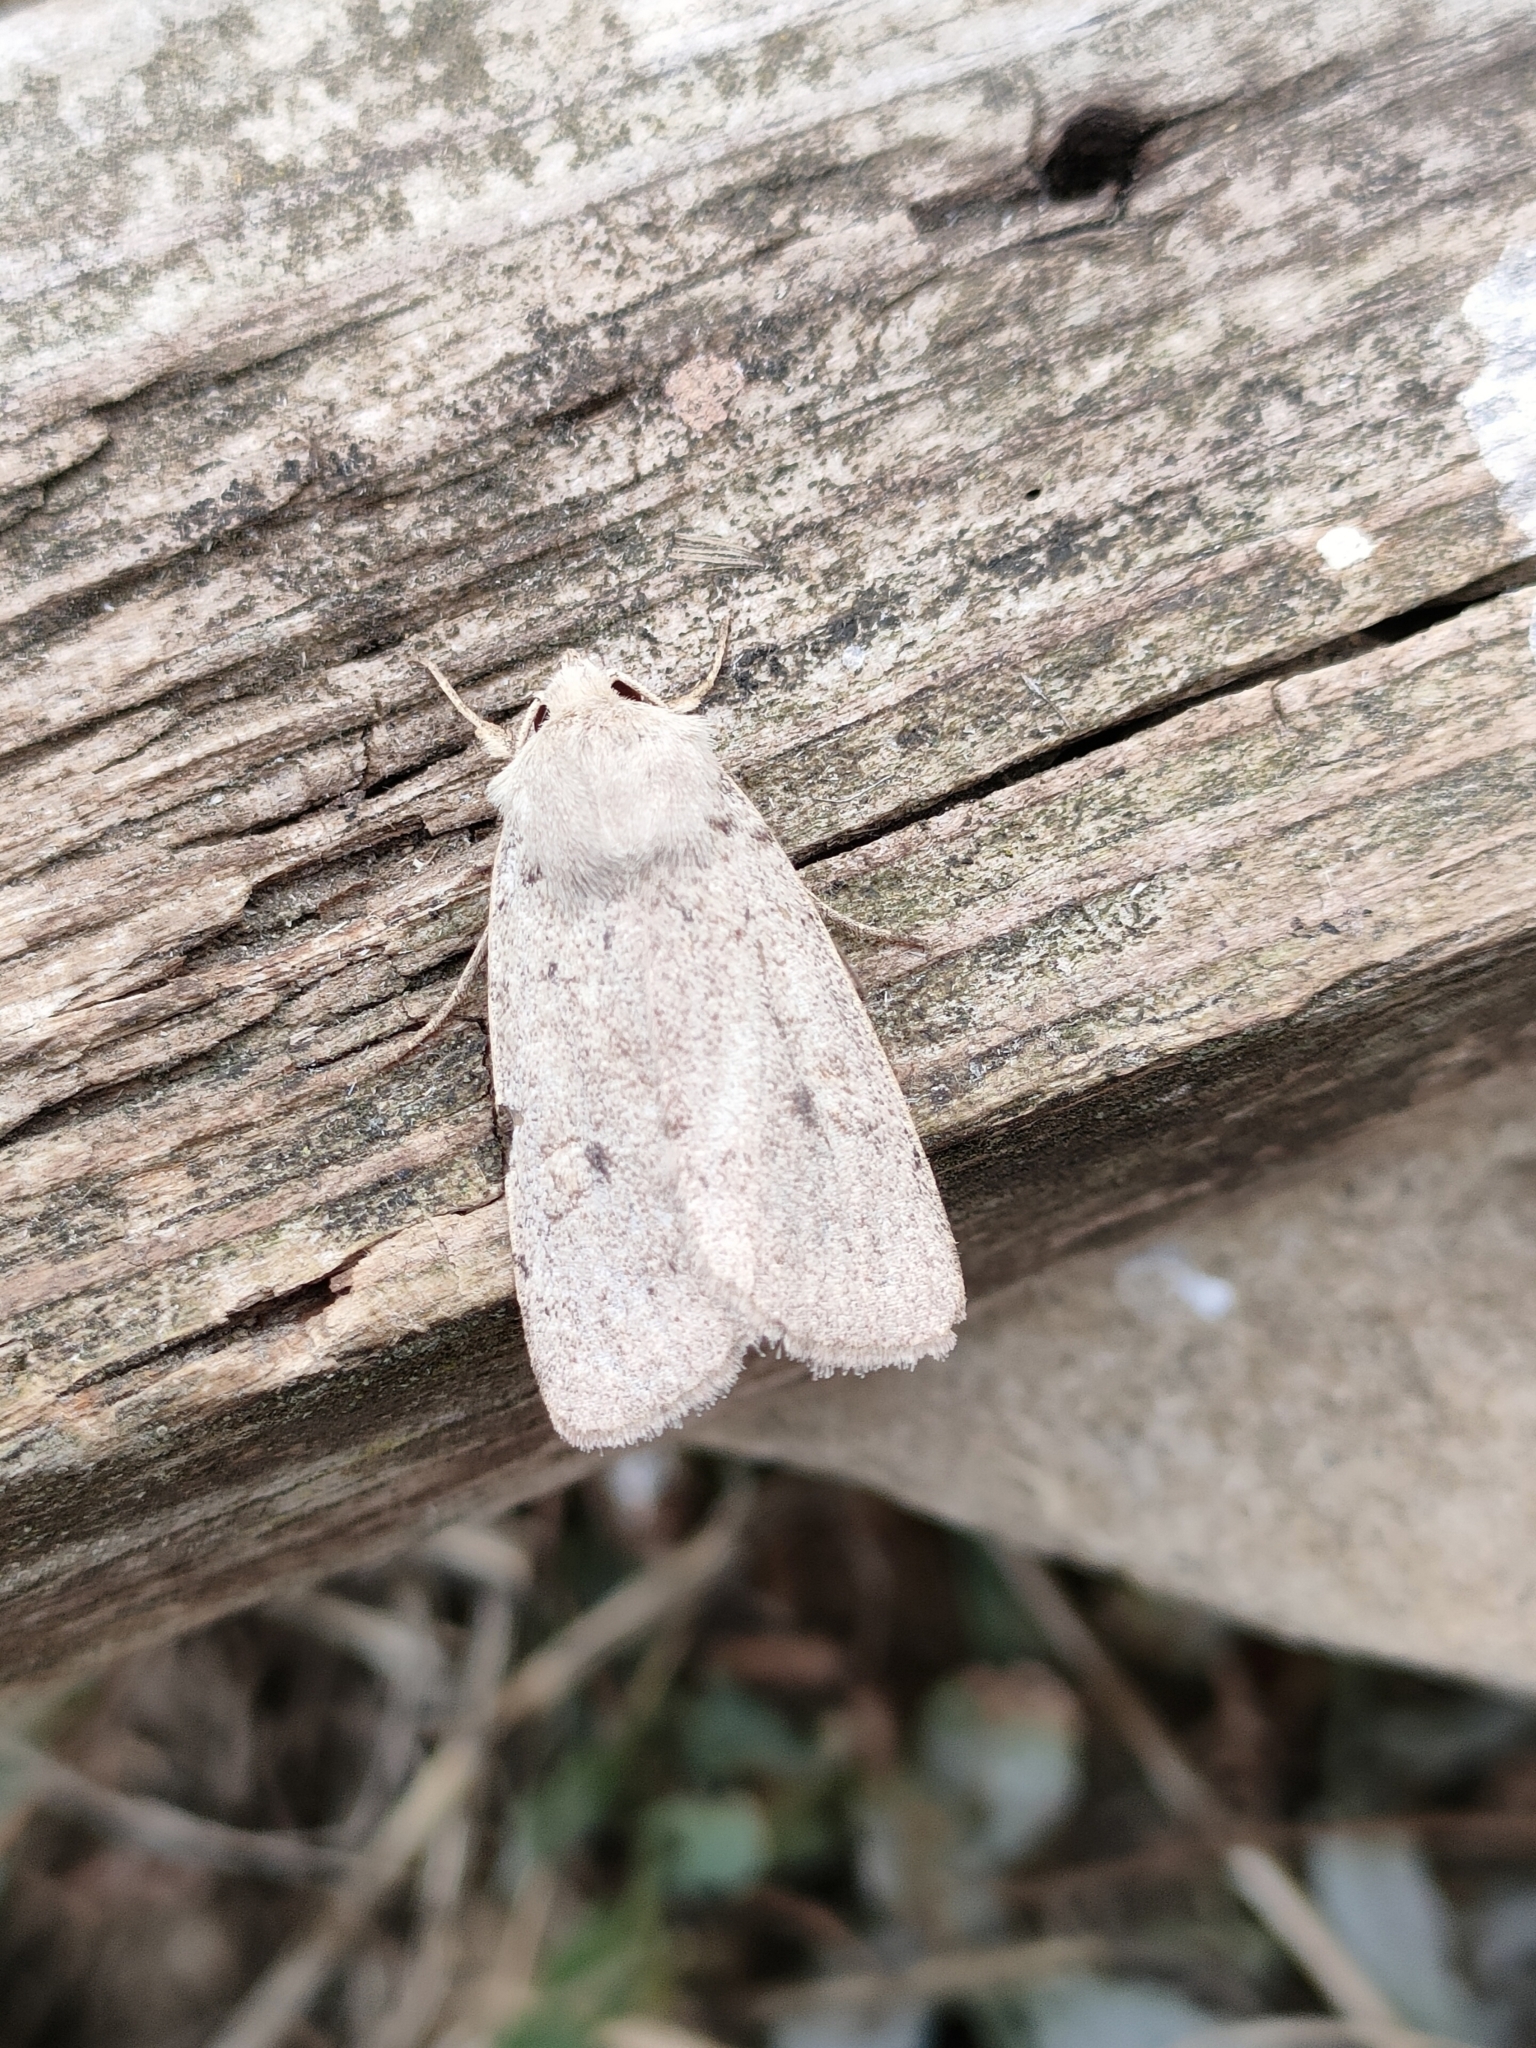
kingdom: Animalia
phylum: Arthropoda
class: Insecta
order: Lepidoptera
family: Noctuidae
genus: Xestia
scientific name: Xestia castanea
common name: Neglected rustic
